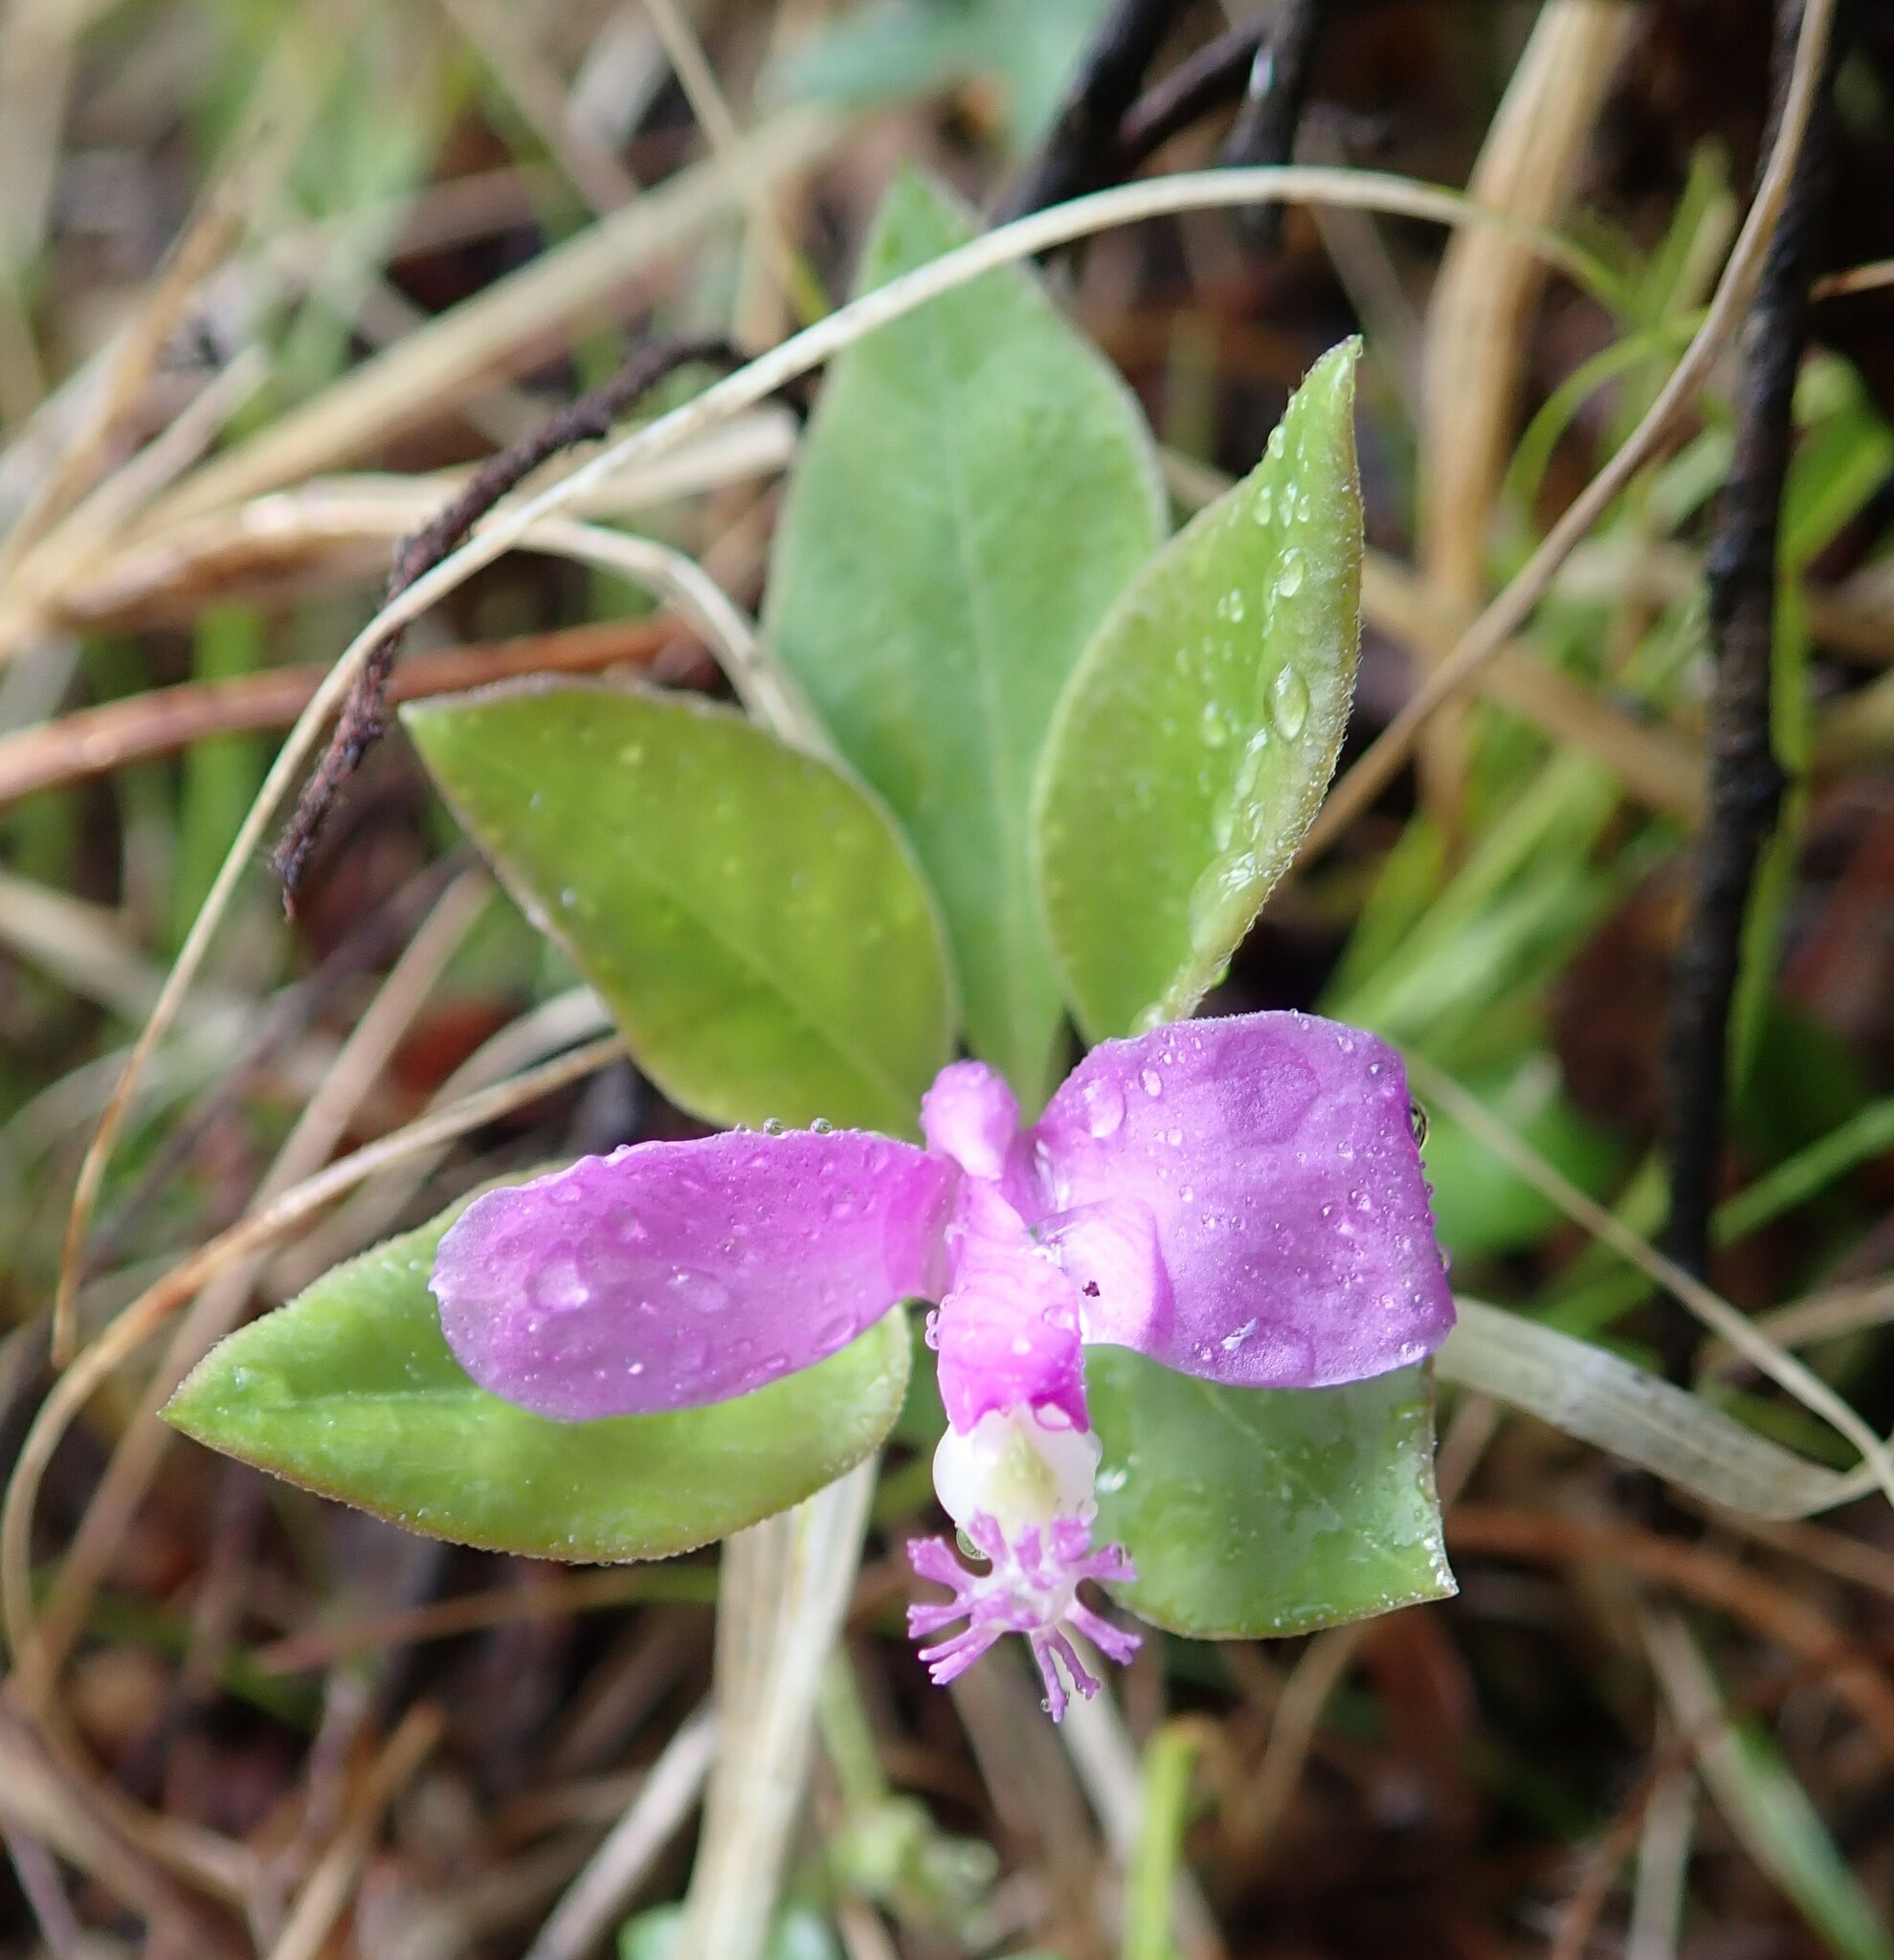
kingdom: Plantae
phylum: Tracheophyta
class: Magnoliopsida
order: Fabales
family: Polygalaceae
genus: Polygaloides
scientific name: Polygaloides paucifolia
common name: Bird-on-the-wing
